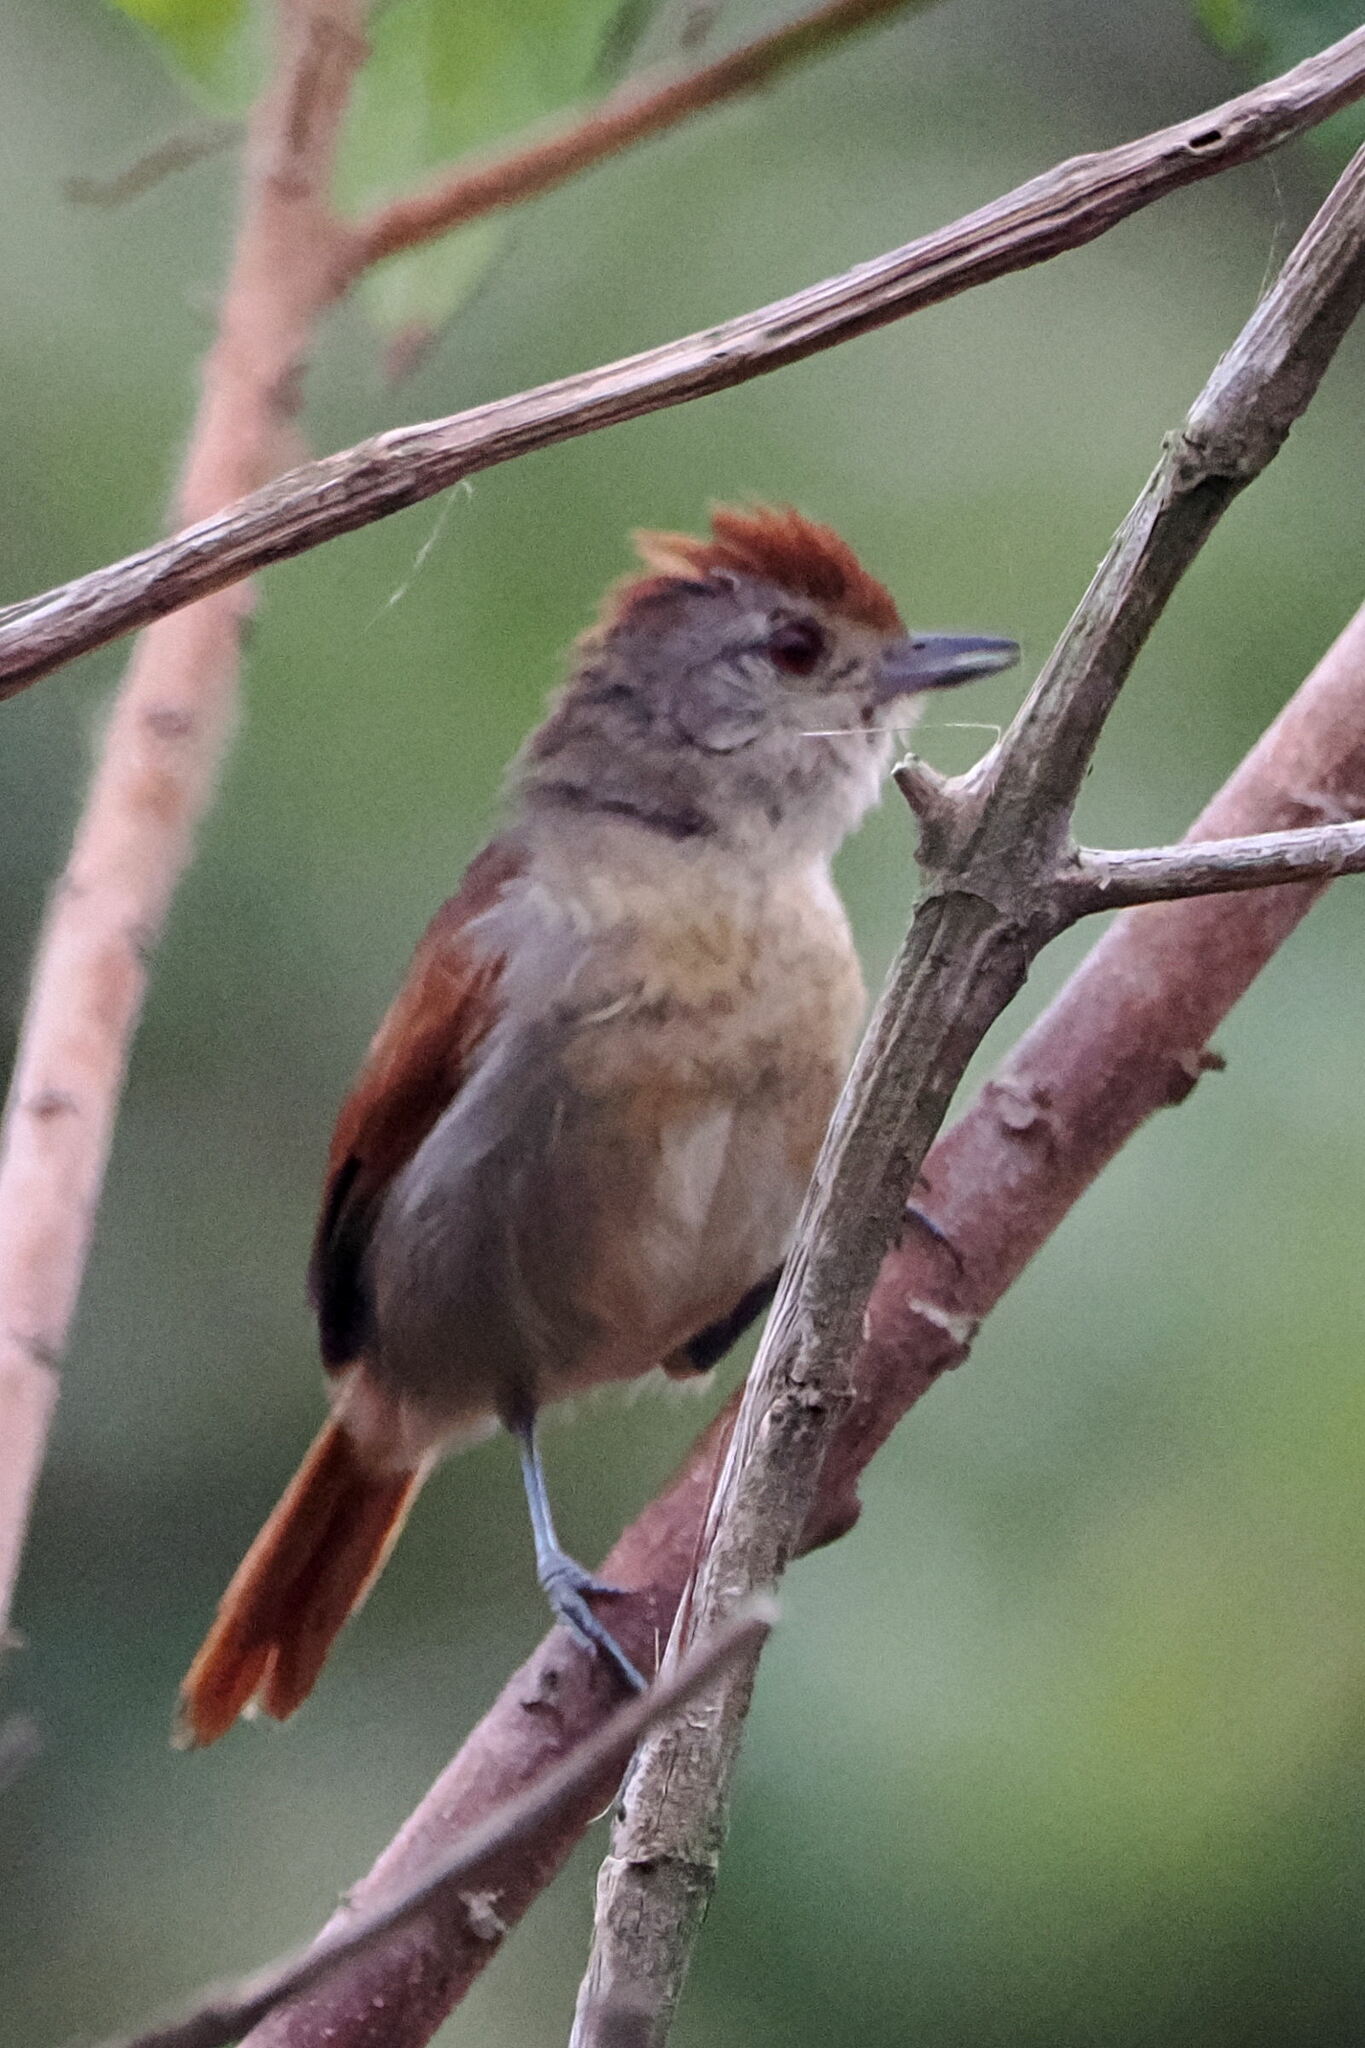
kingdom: Animalia
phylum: Chordata
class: Aves
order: Passeriformes
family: Thamnophilidae
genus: Thamnophilus
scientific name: Thamnophilus torquatus
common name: Rufous-winged antshrike
